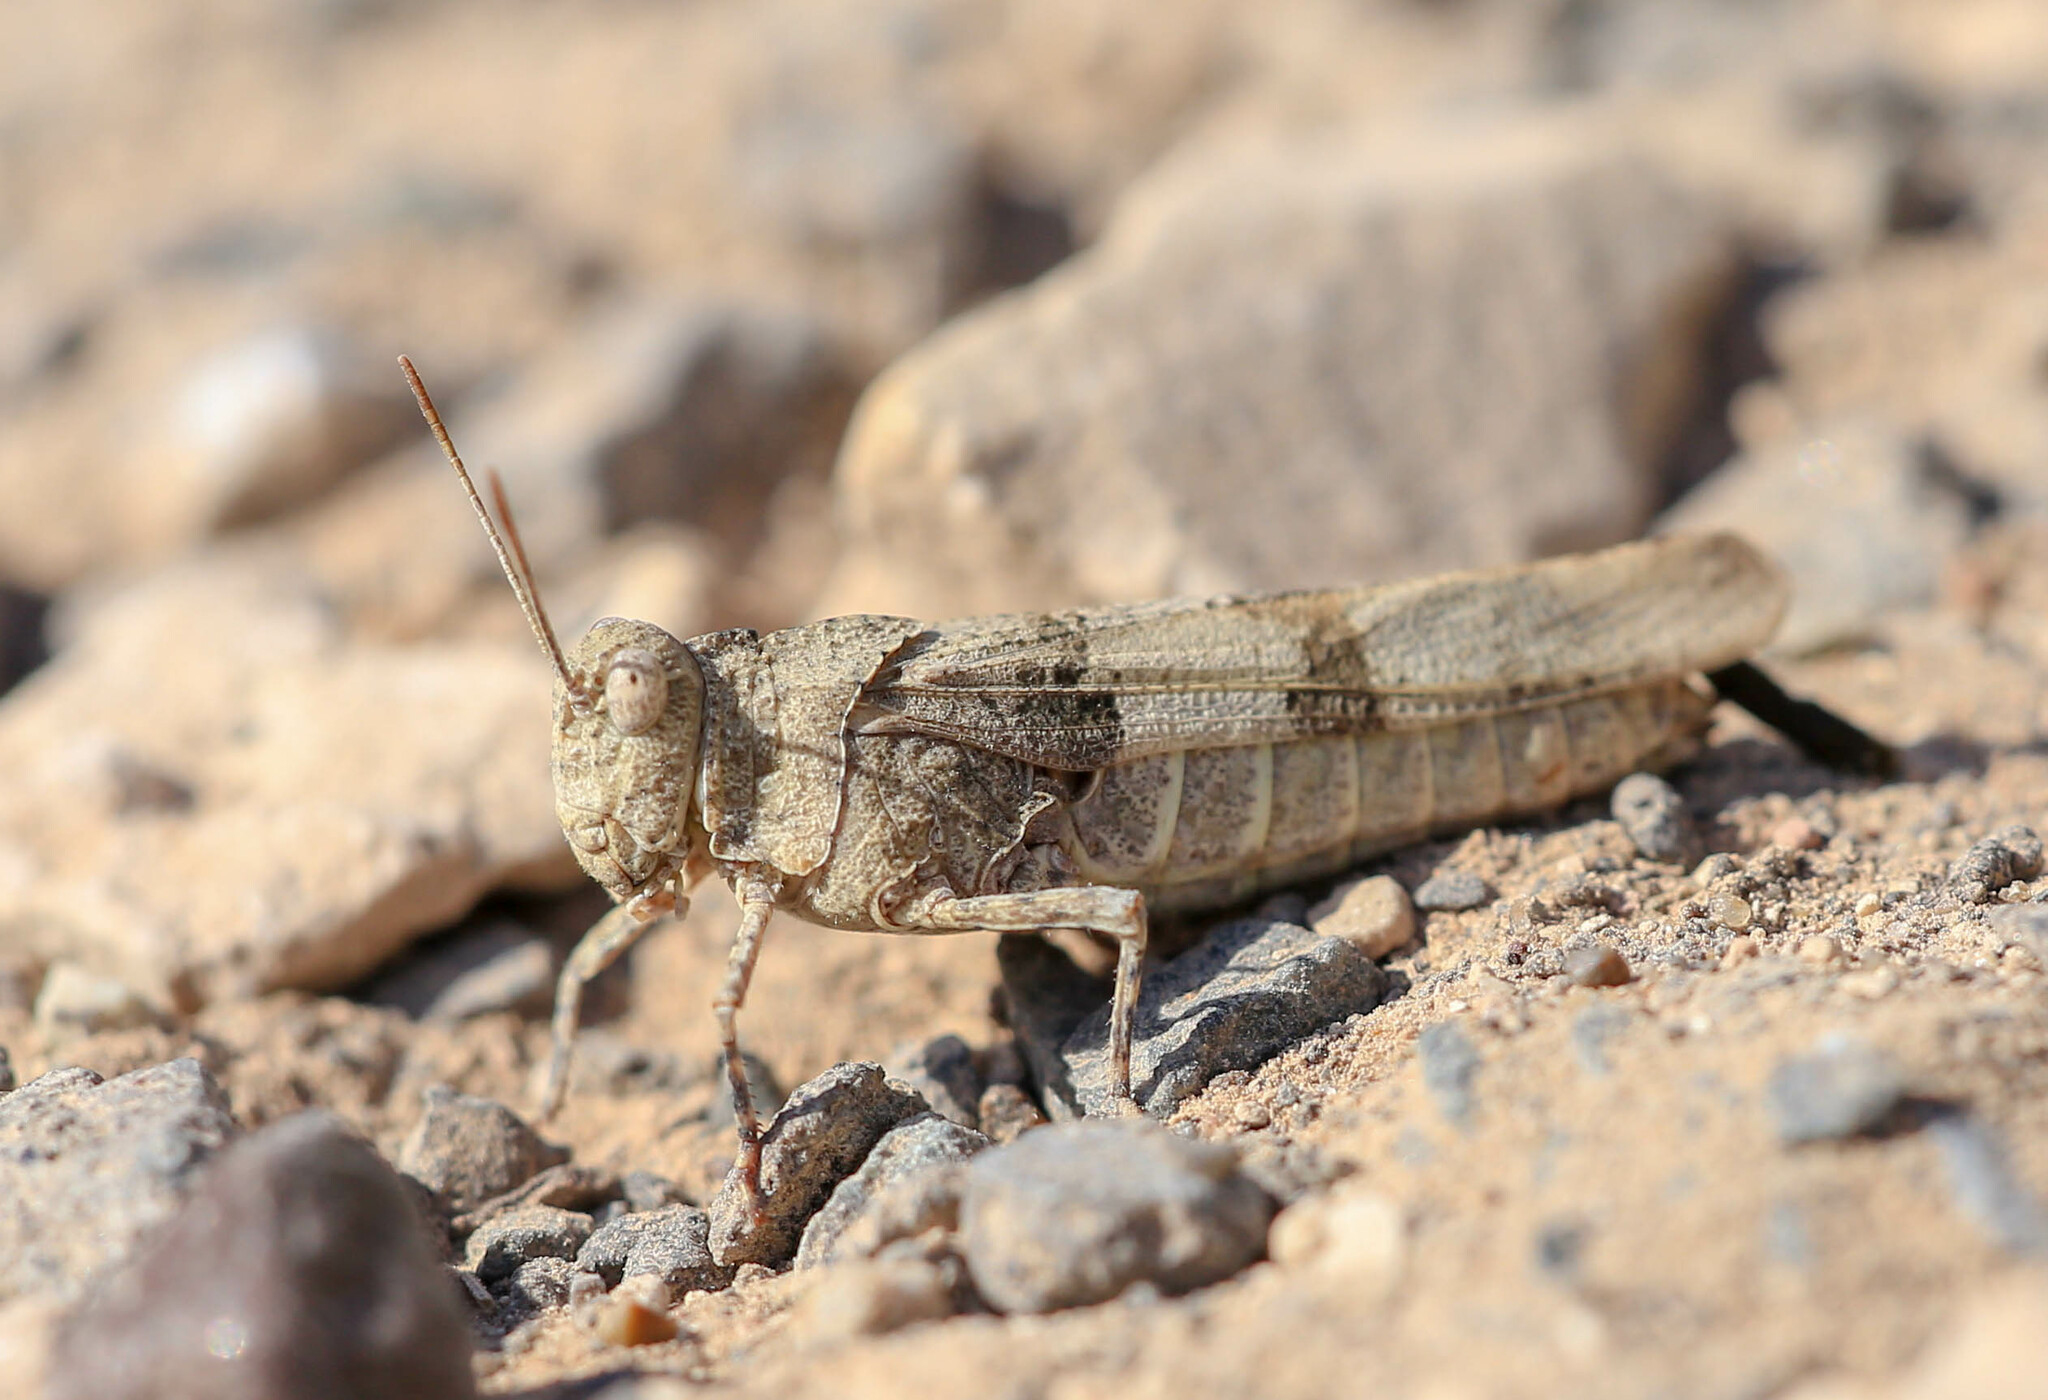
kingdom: Animalia
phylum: Arthropoda
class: Insecta
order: Orthoptera
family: Acrididae
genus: Oedipoda
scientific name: Oedipoda caerulescens
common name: Blue-winged grasshopper
